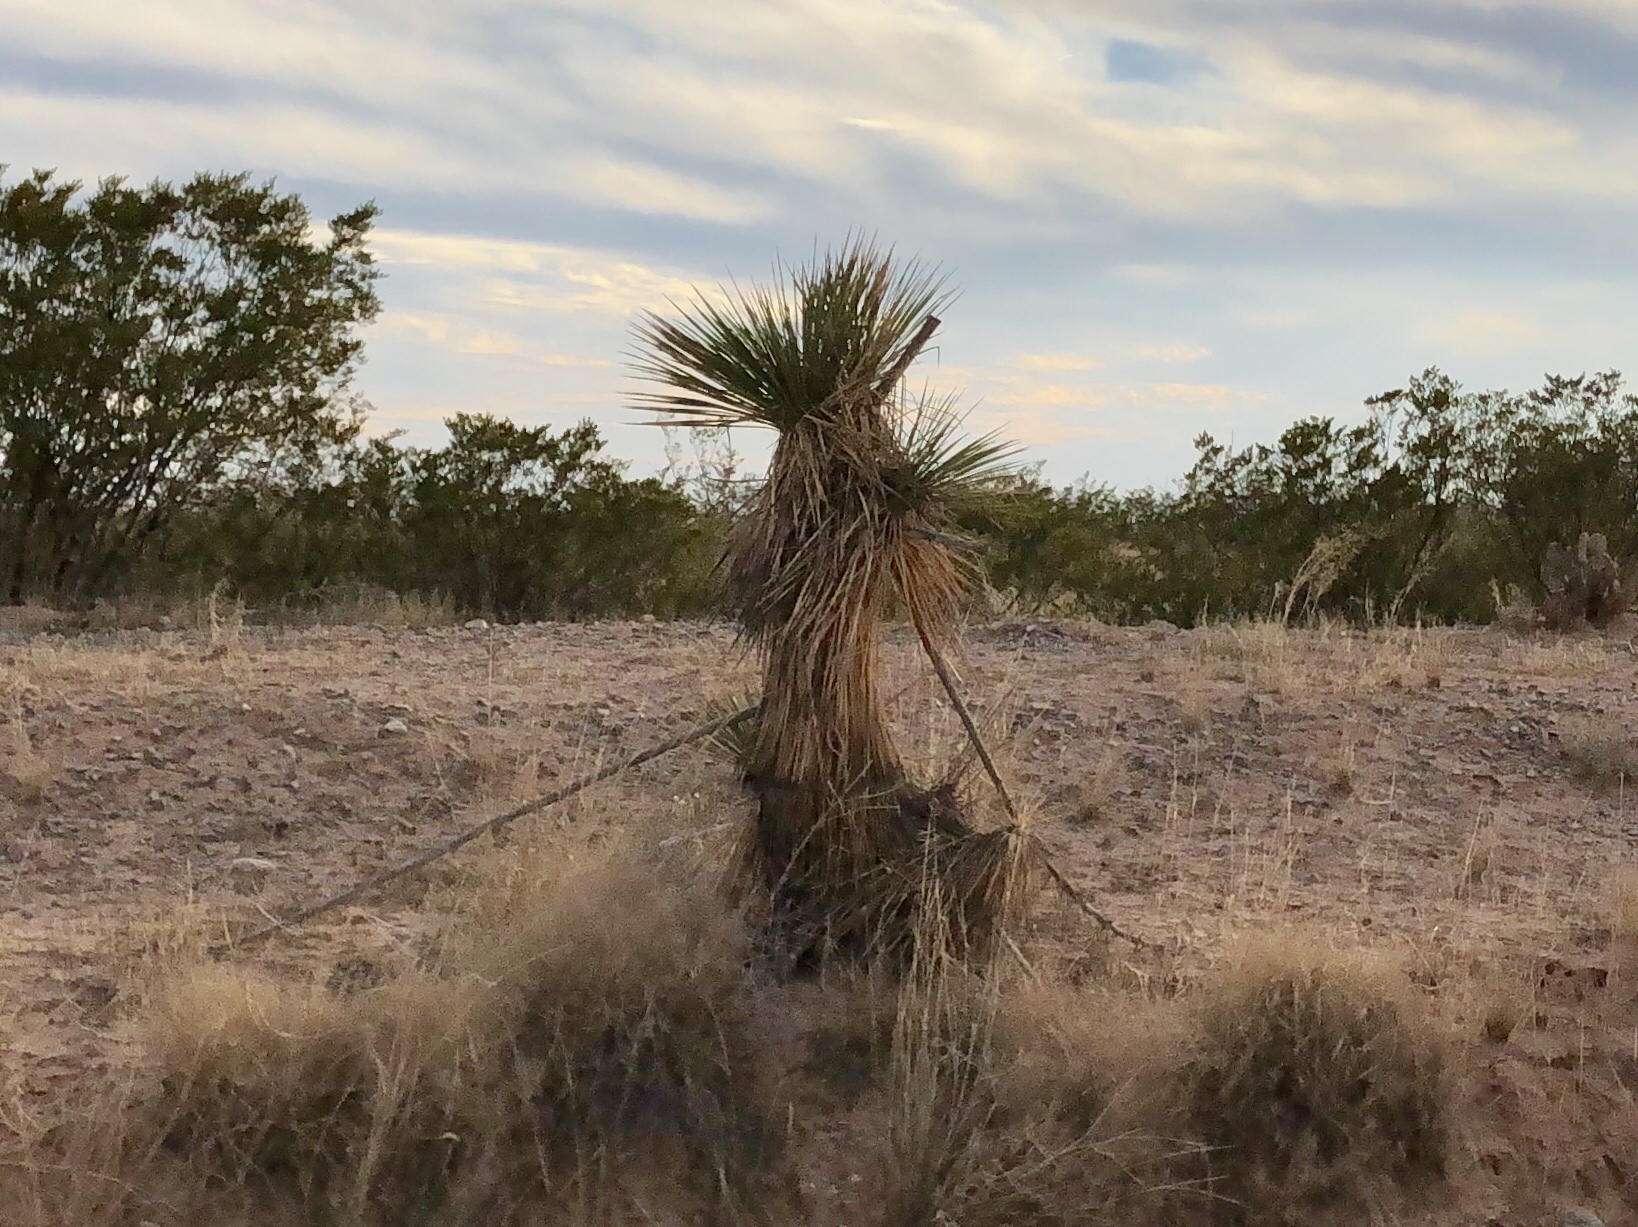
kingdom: Plantae
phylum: Tracheophyta
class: Liliopsida
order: Asparagales
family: Asparagaceae
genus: Yucca
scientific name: Yucca elata
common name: Palmella
